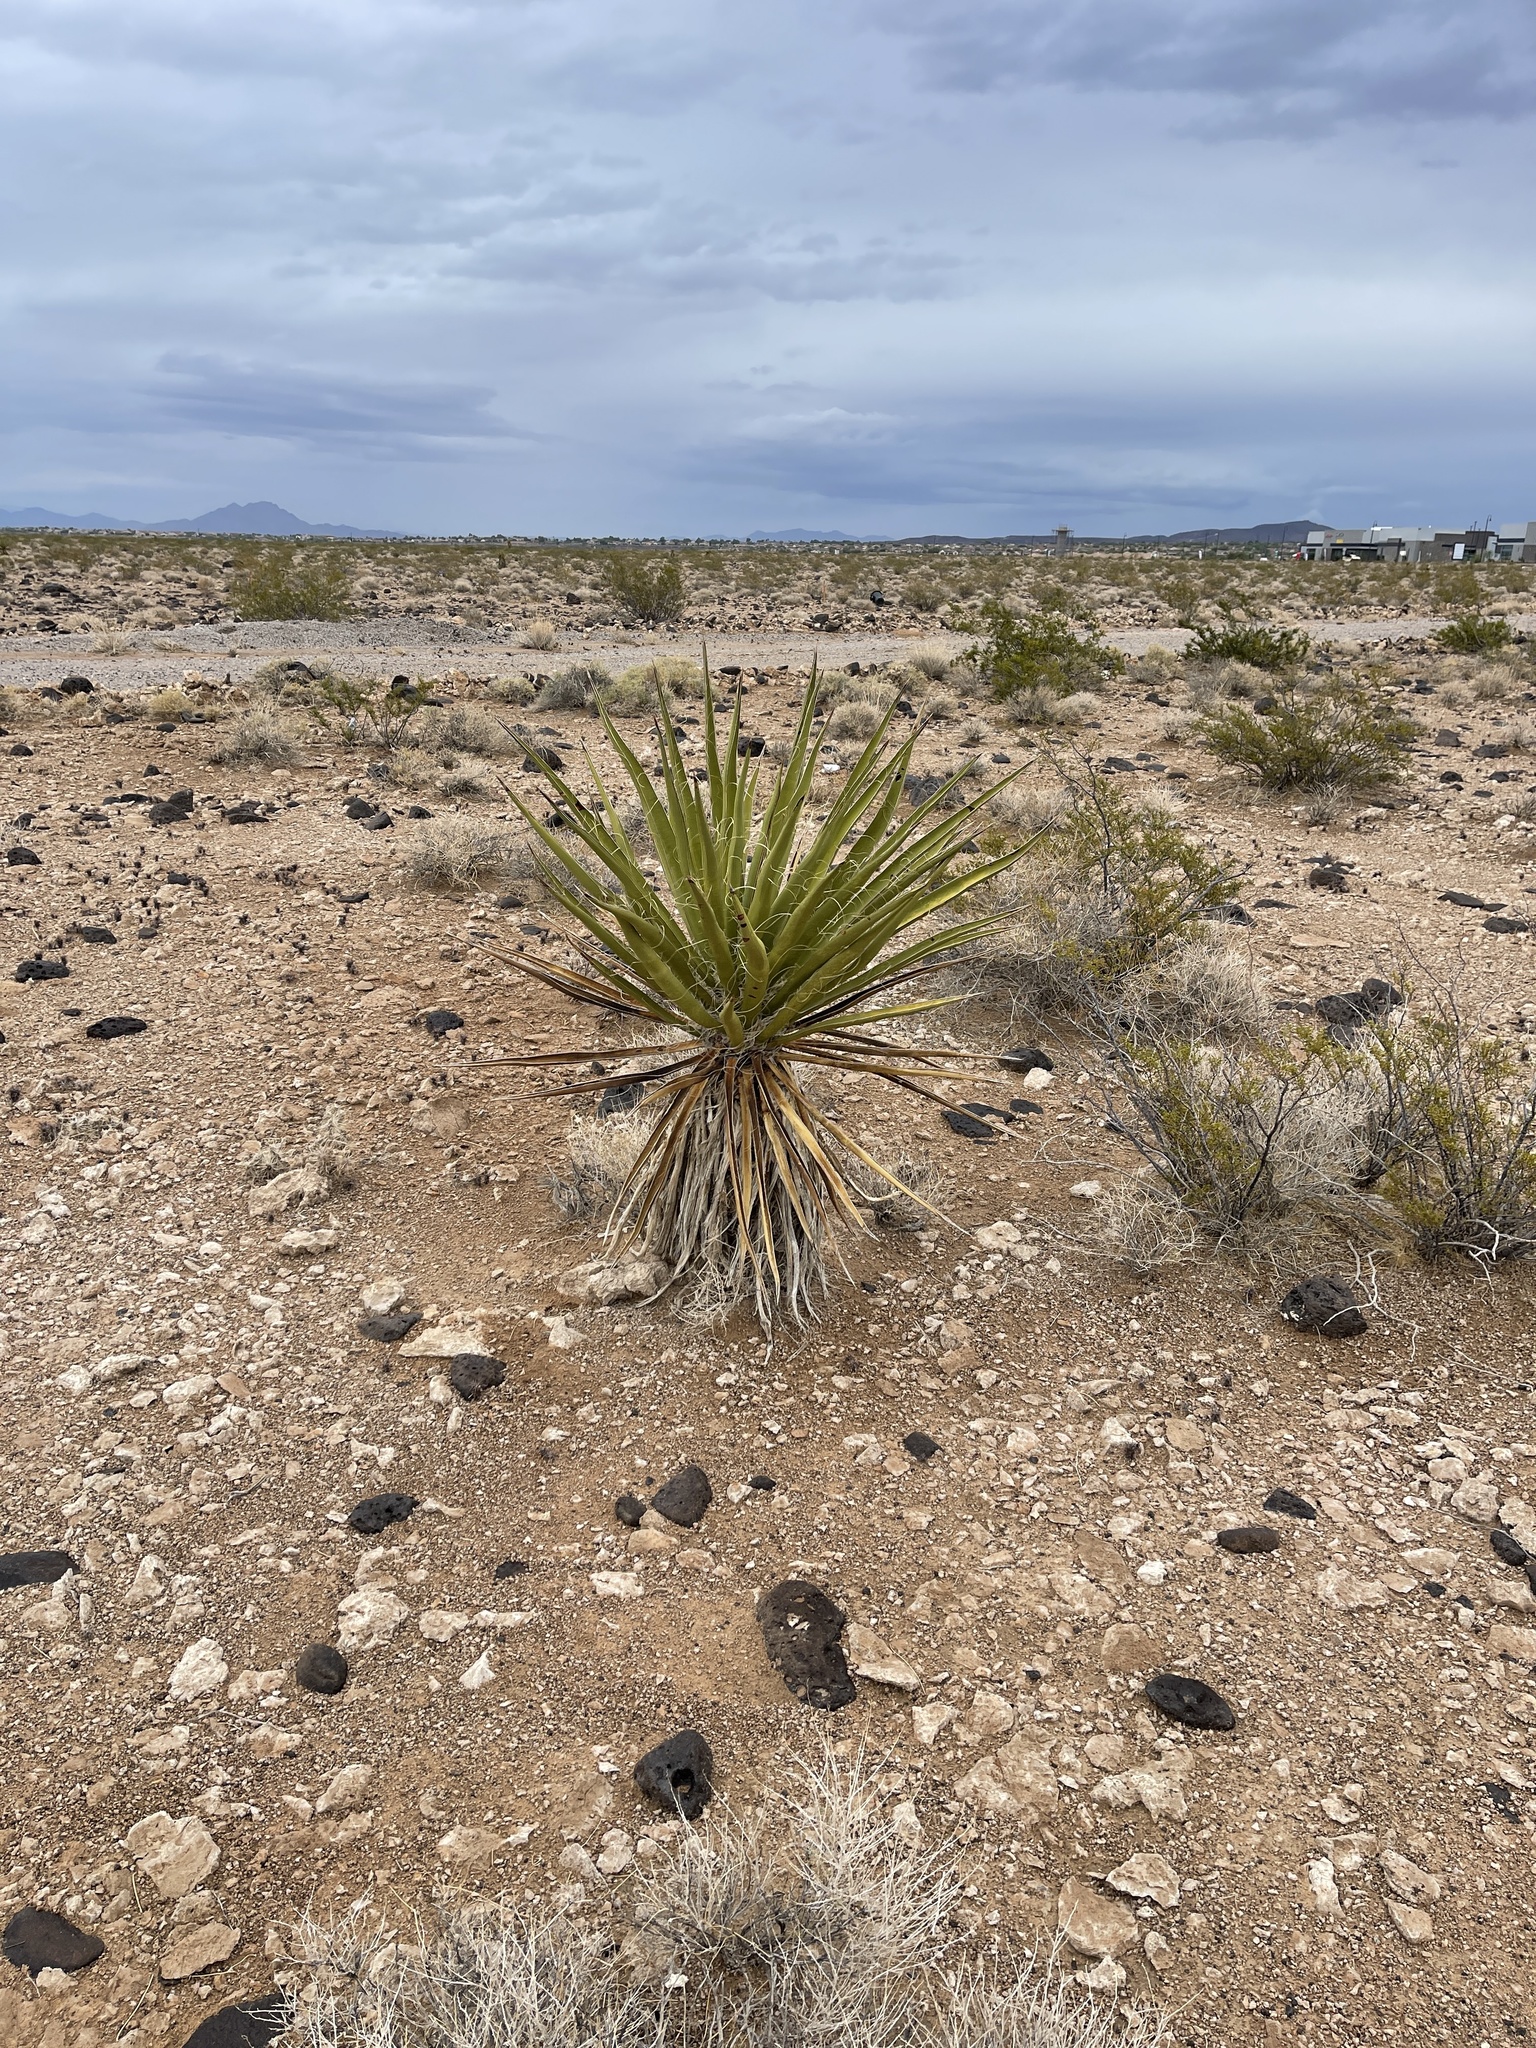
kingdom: Plantae
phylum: Tracheophyta
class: Liliopsida
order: Asparagales
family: Asparagaceae
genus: Yucca
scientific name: Yucca schidigera
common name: Mojave yucca
